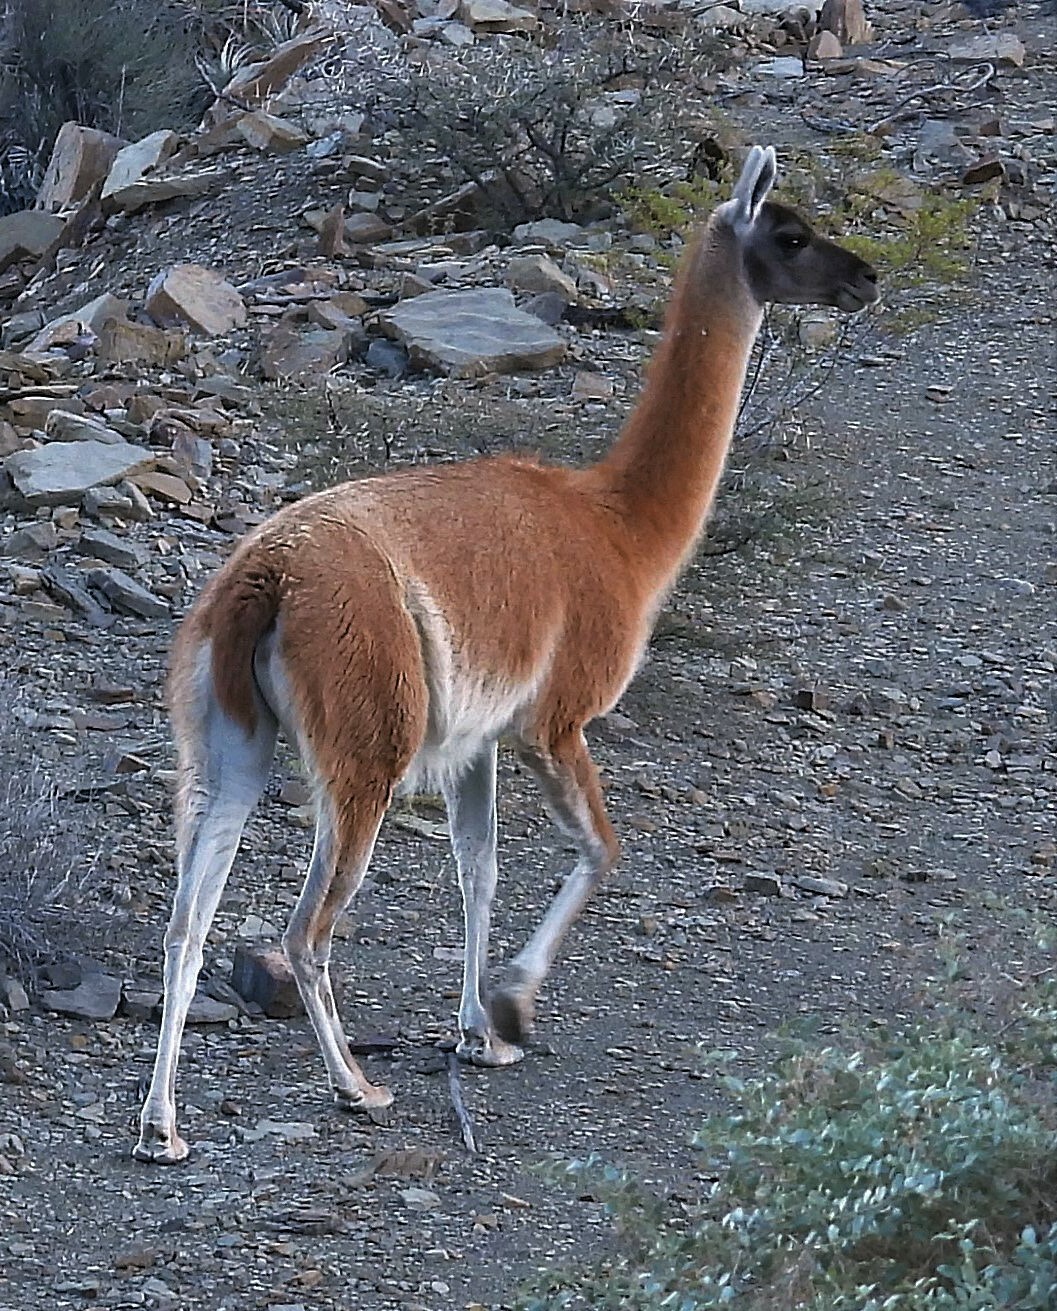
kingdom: Animalia
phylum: Chordata
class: Mammalia
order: Artiodactyla
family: Camelidae
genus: Lama
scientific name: Lama glama
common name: Llama
